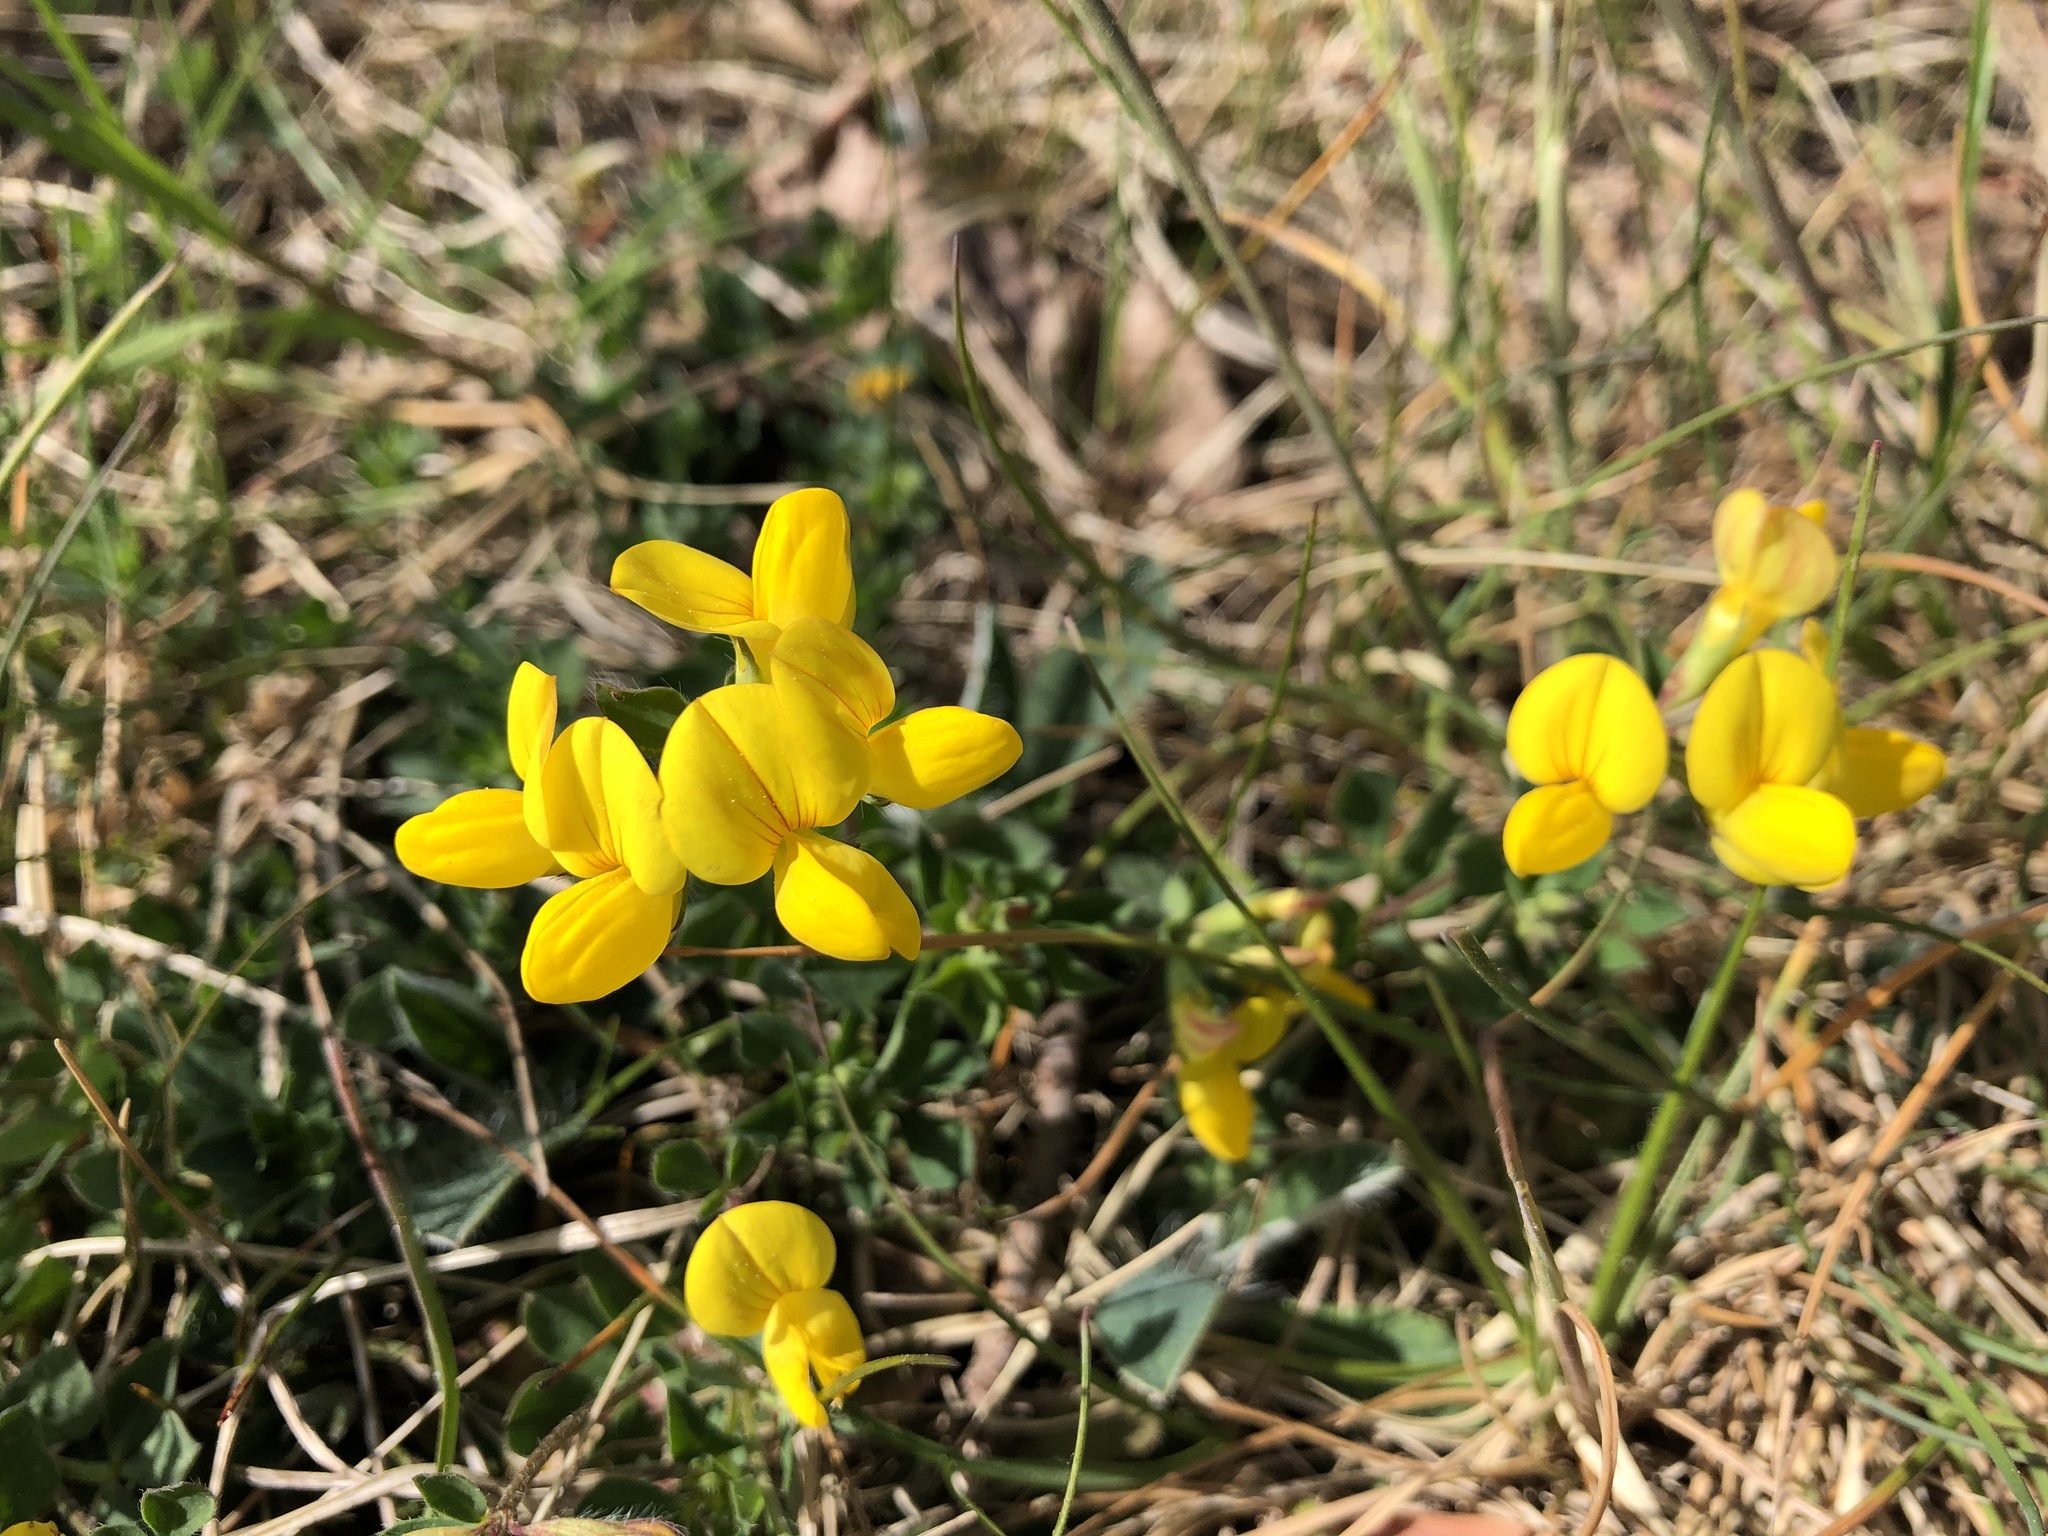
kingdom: Plantae
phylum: Tracheophyta
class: Magnoliopsida
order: Fabales
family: Fabaceae
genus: Lotus
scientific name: Lotus corniculatus
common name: Common bird's-foot-trefoil
